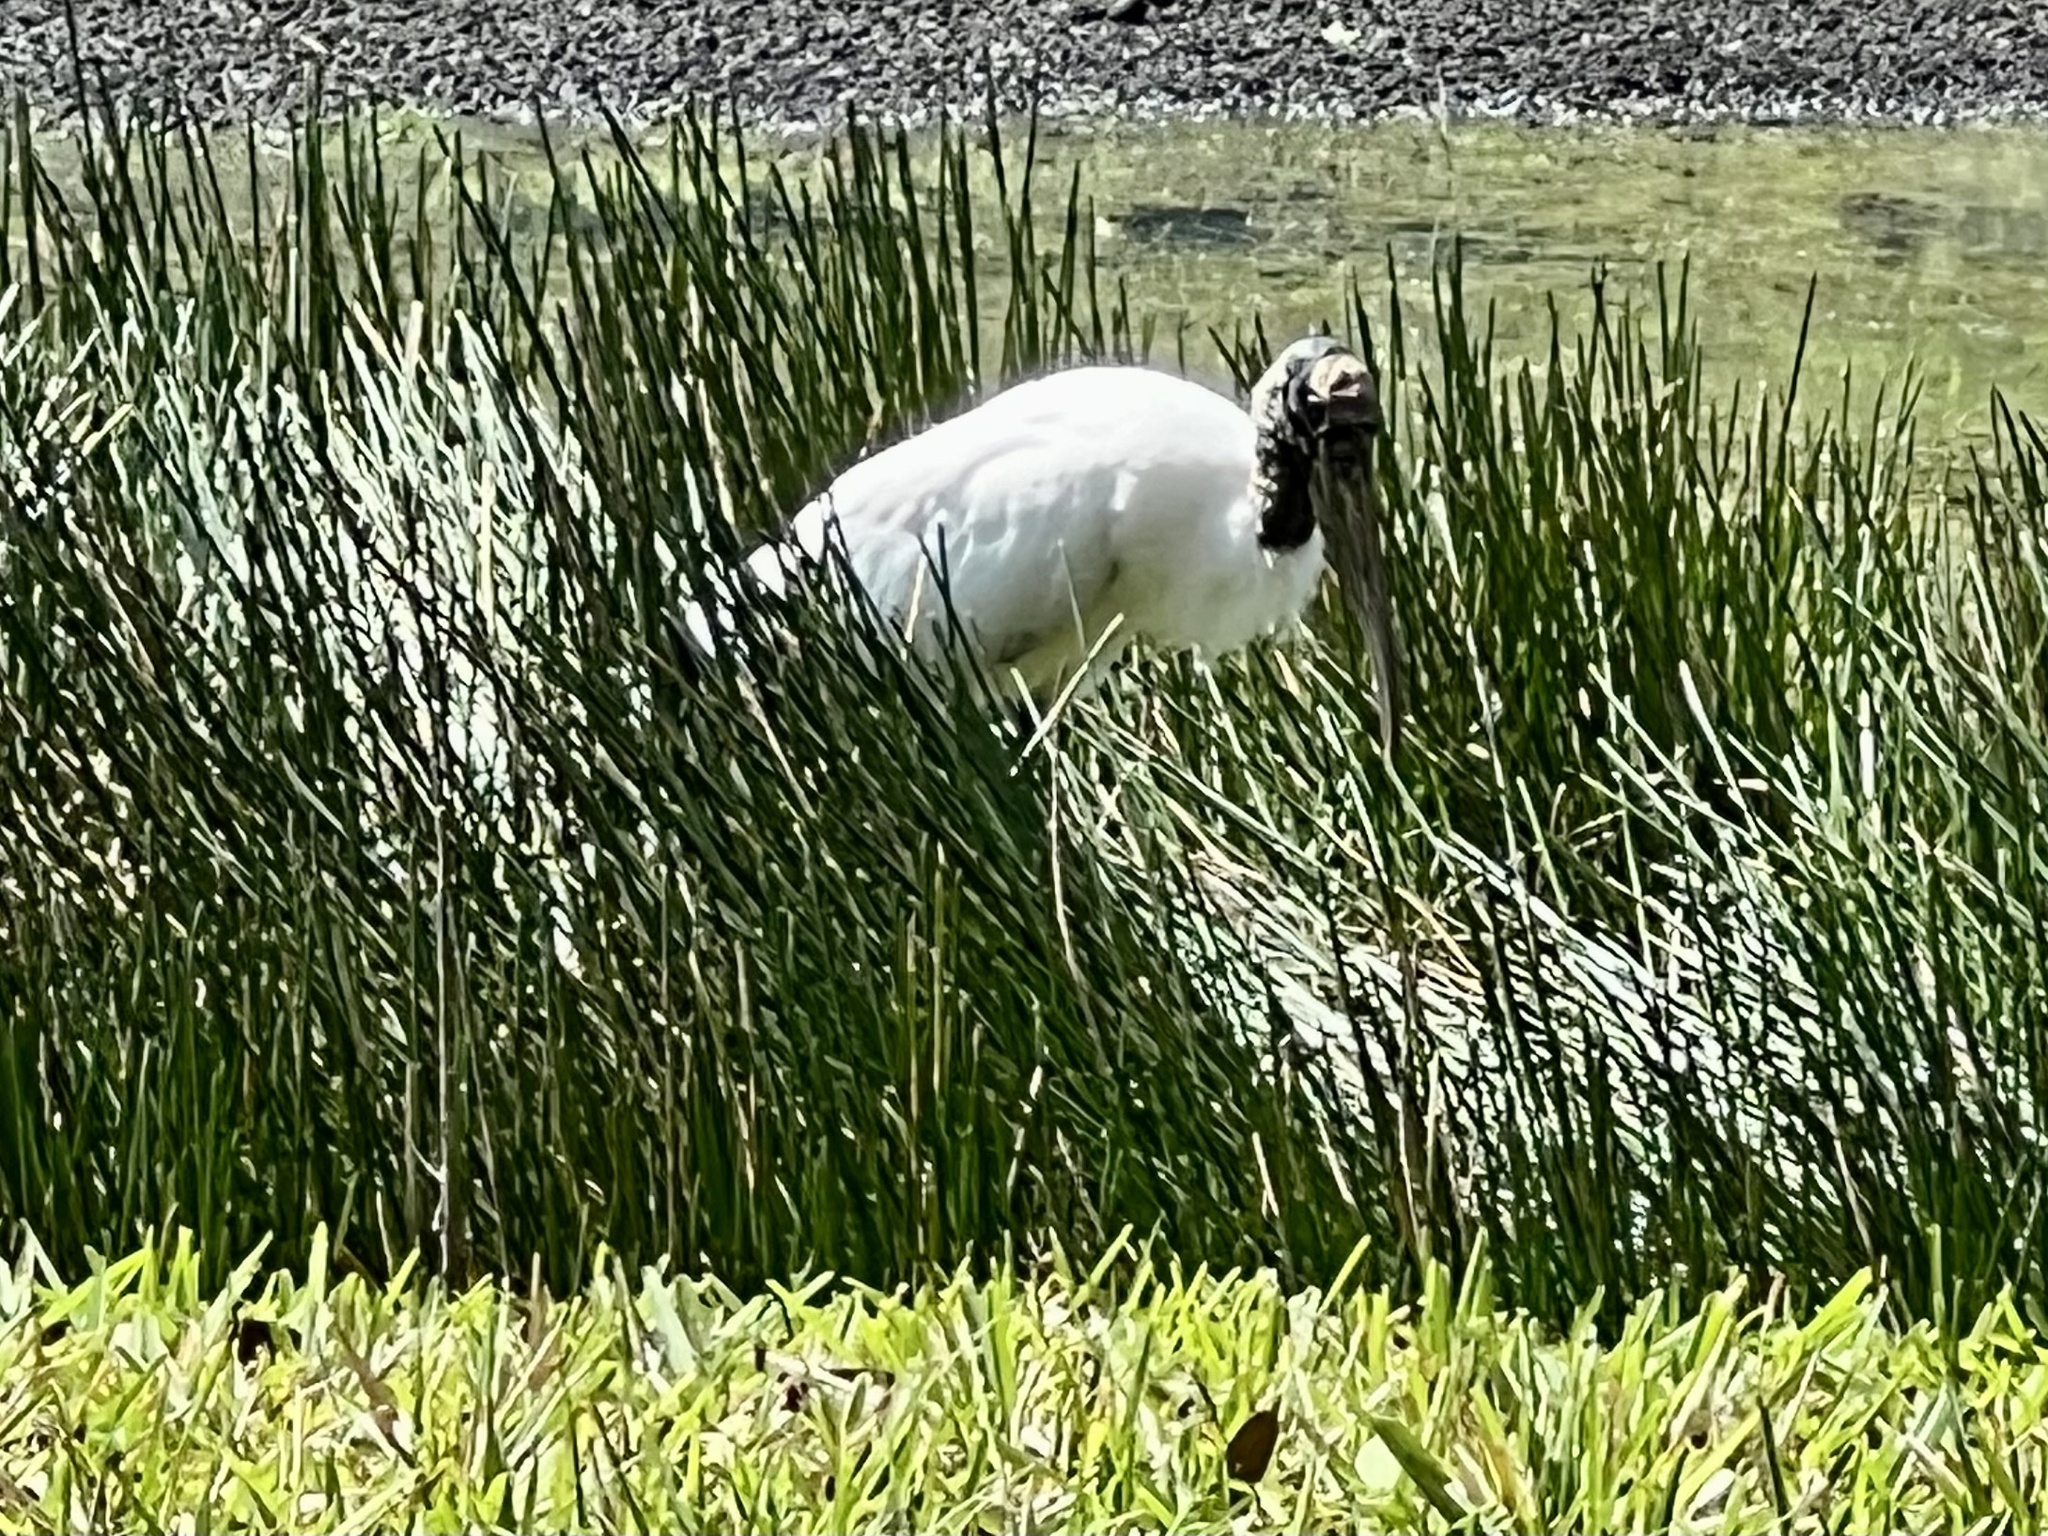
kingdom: Animalia
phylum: Chordata
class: Aves
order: Ciconiiformes
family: Ciconiidae
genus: Mycteria
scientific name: Mycteria americana
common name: Wood stork
